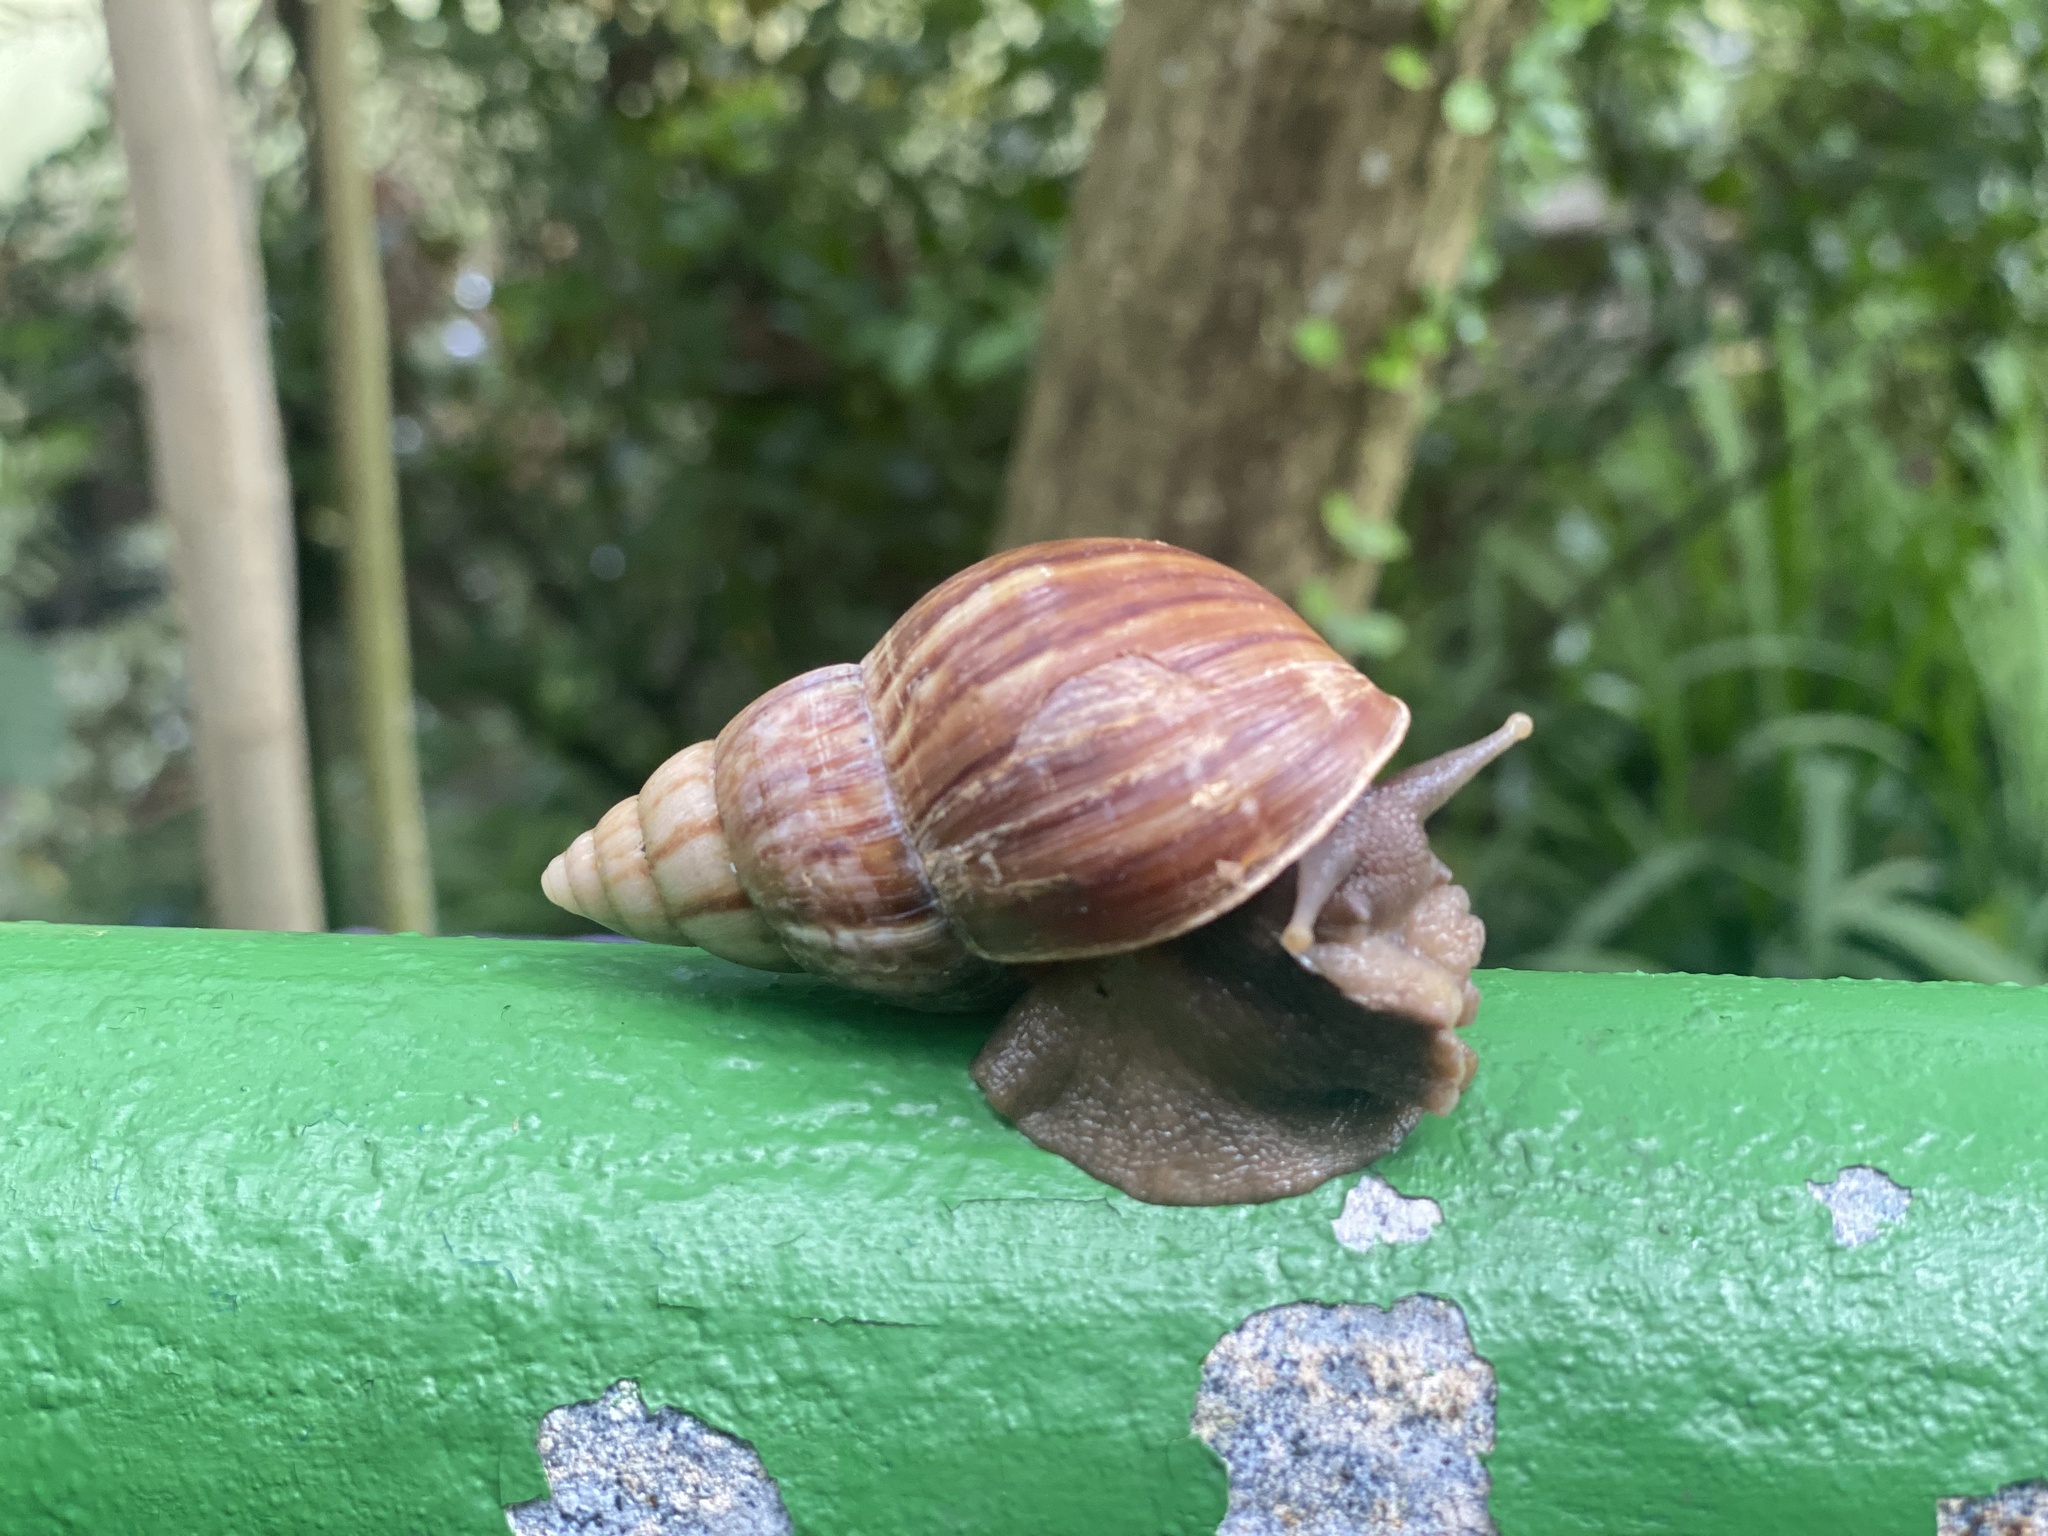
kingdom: Animalia
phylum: Mollusca
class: Gastropoda
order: Stylommatophora
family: Achatinidae
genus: Lissachatina
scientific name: Lissachatina fulica
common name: Giant african snail
